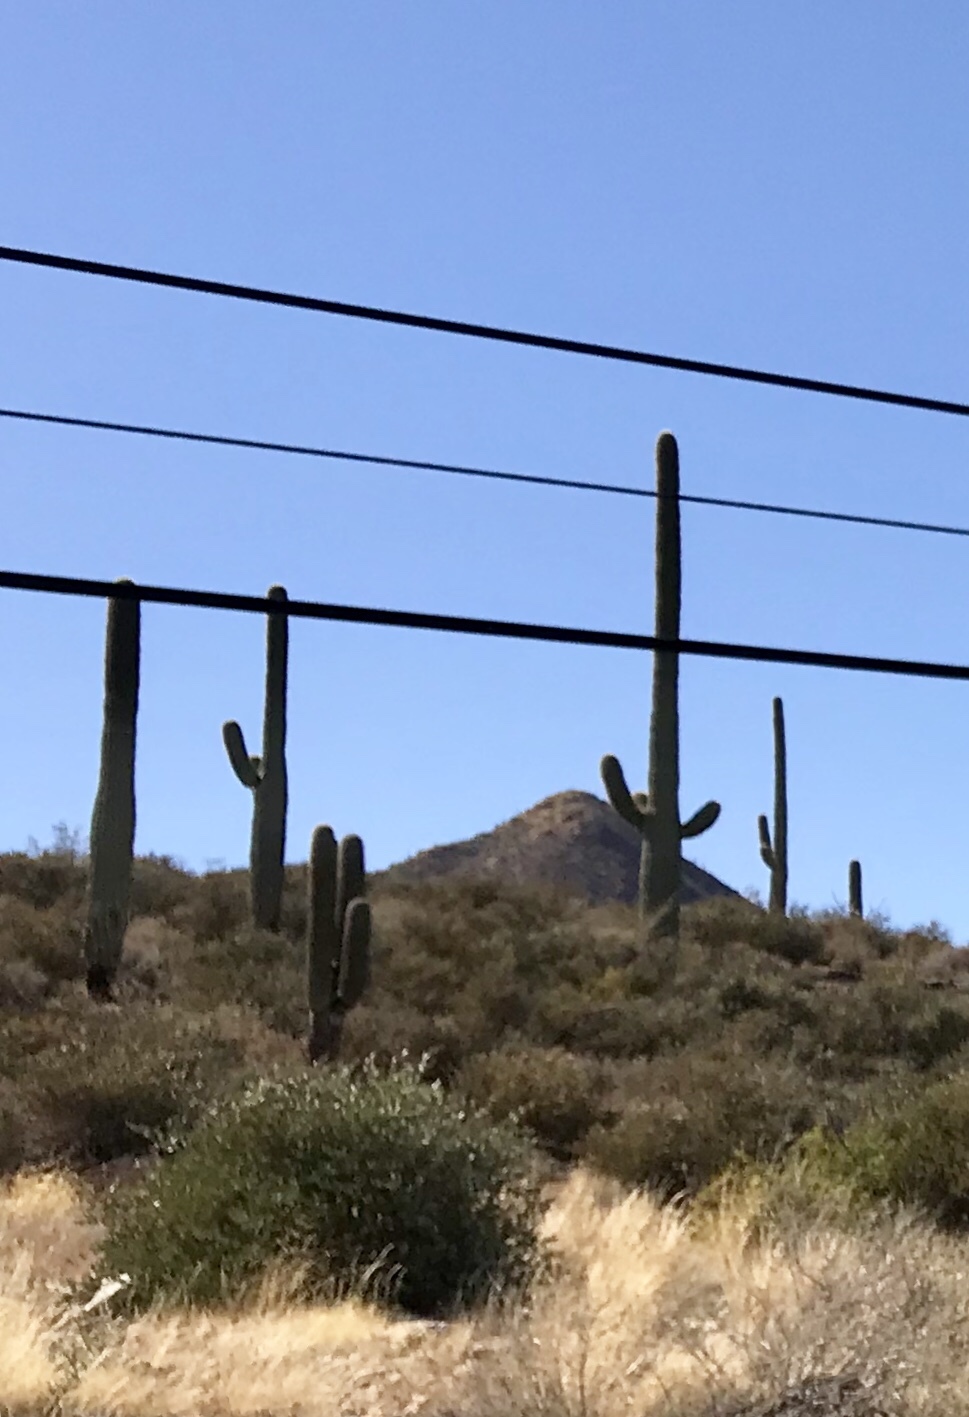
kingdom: Plantae
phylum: Tracheophyta
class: Magnoliopsida
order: Caryophyllales
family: Cactaceae
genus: Carnegiea
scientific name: Carnegiea gigantea
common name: Saguaro
